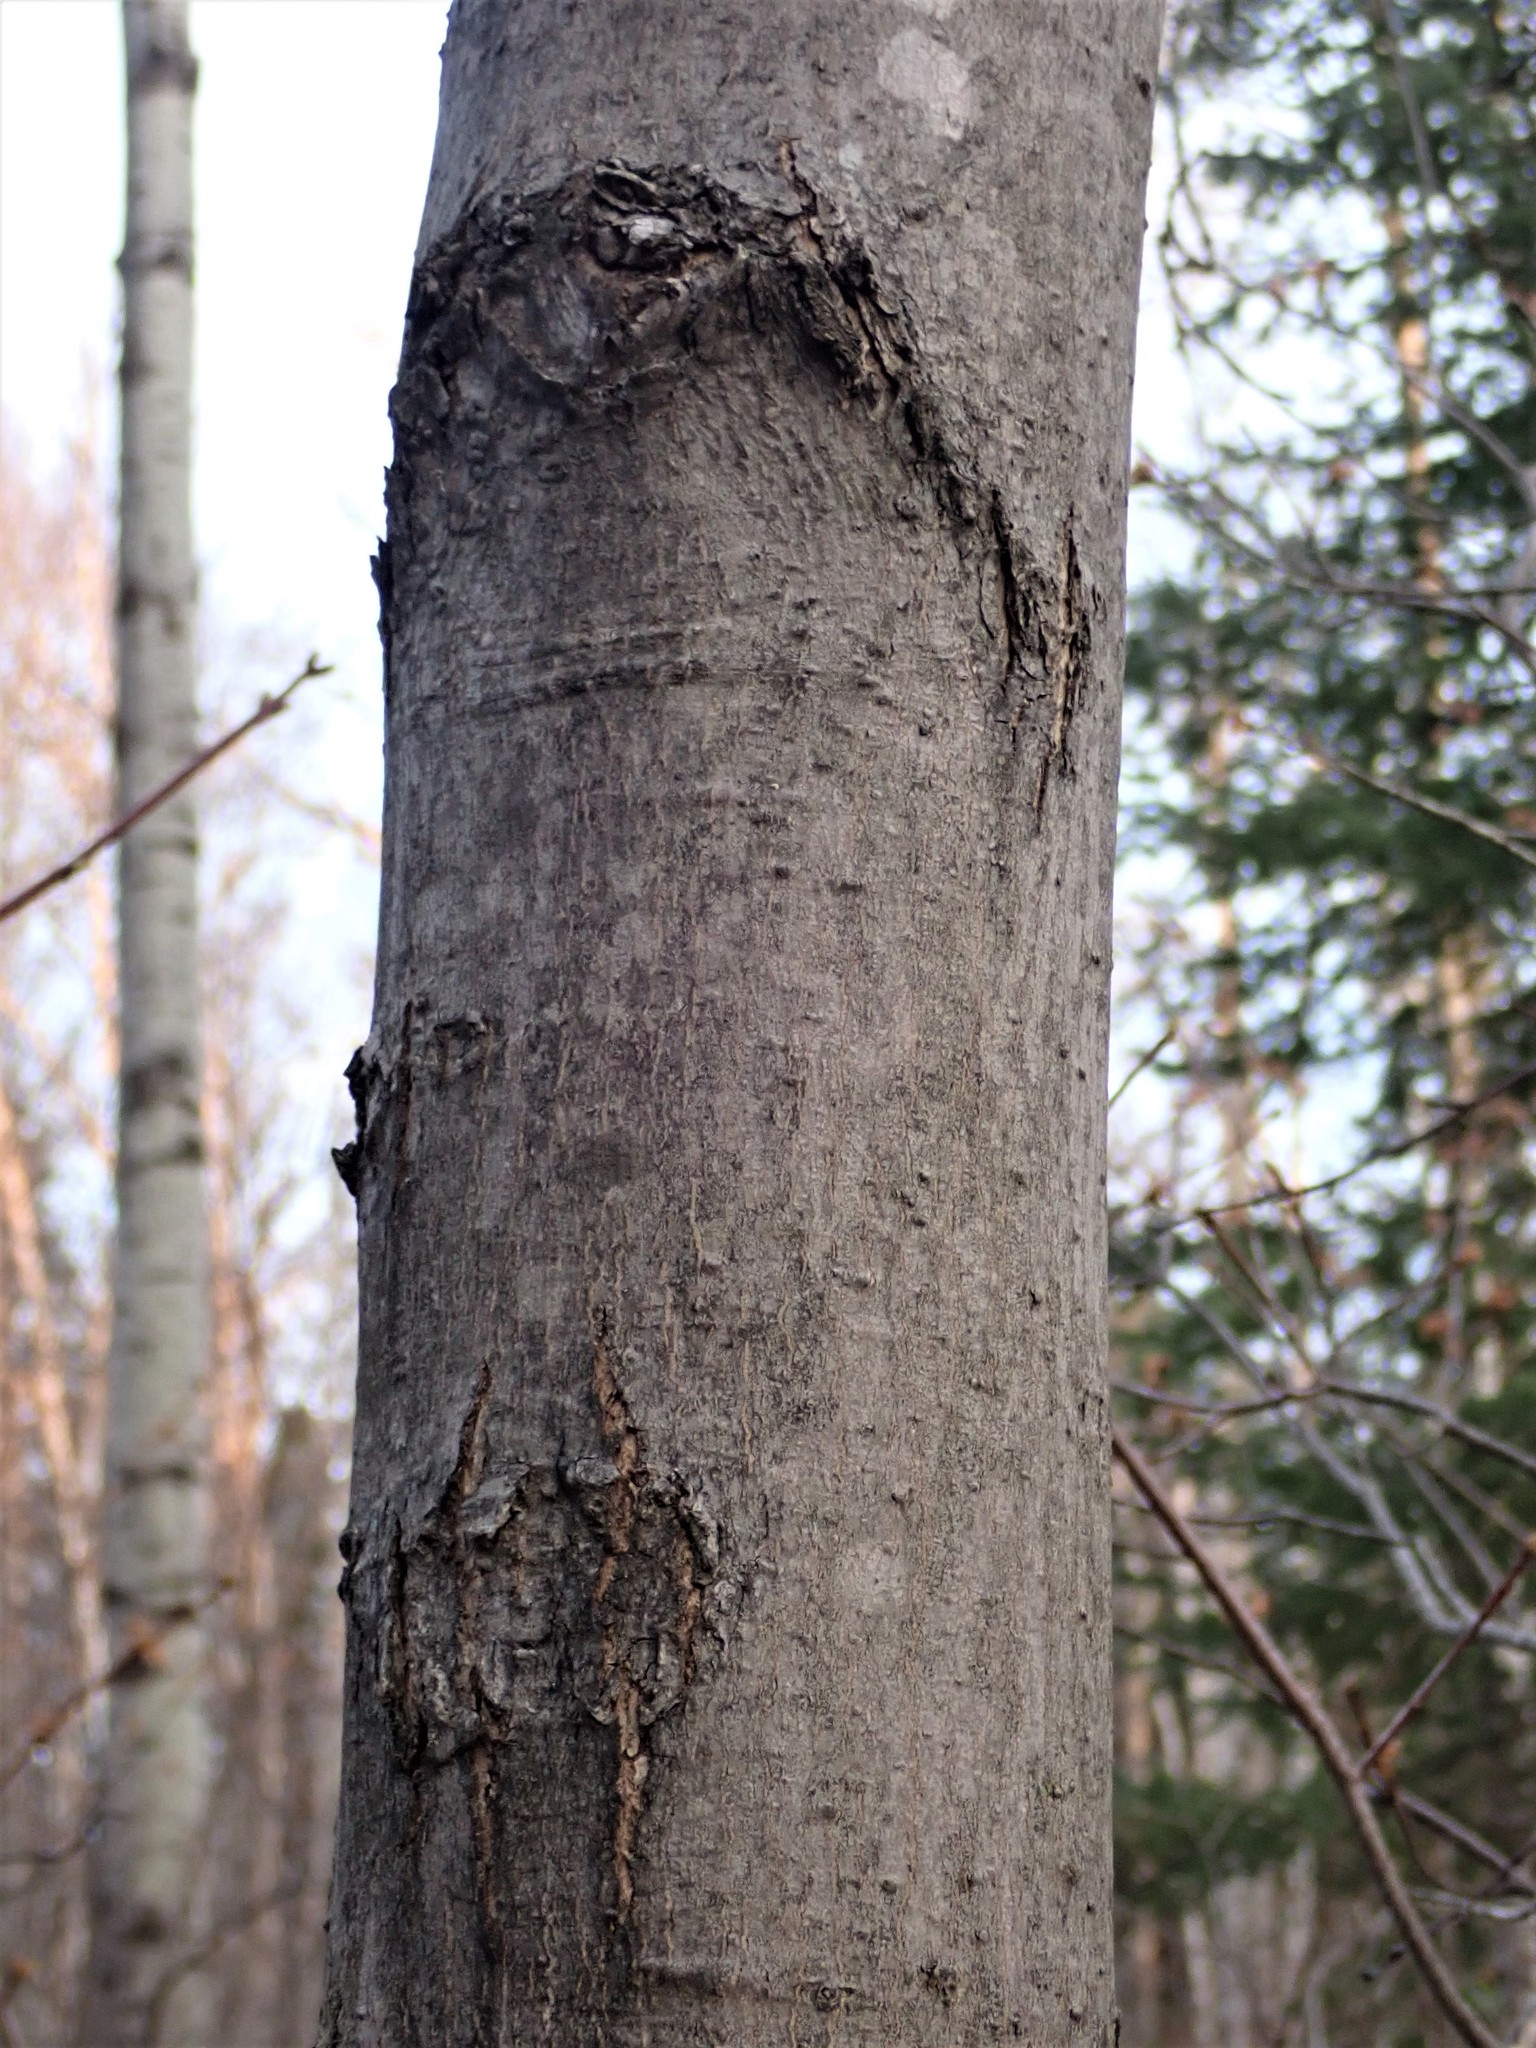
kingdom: Plantae
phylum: Tracheophyta
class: Magnoliopsida
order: Sapindales
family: Sapindaceae
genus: Acer
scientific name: Acer rubrum
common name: Red maple
